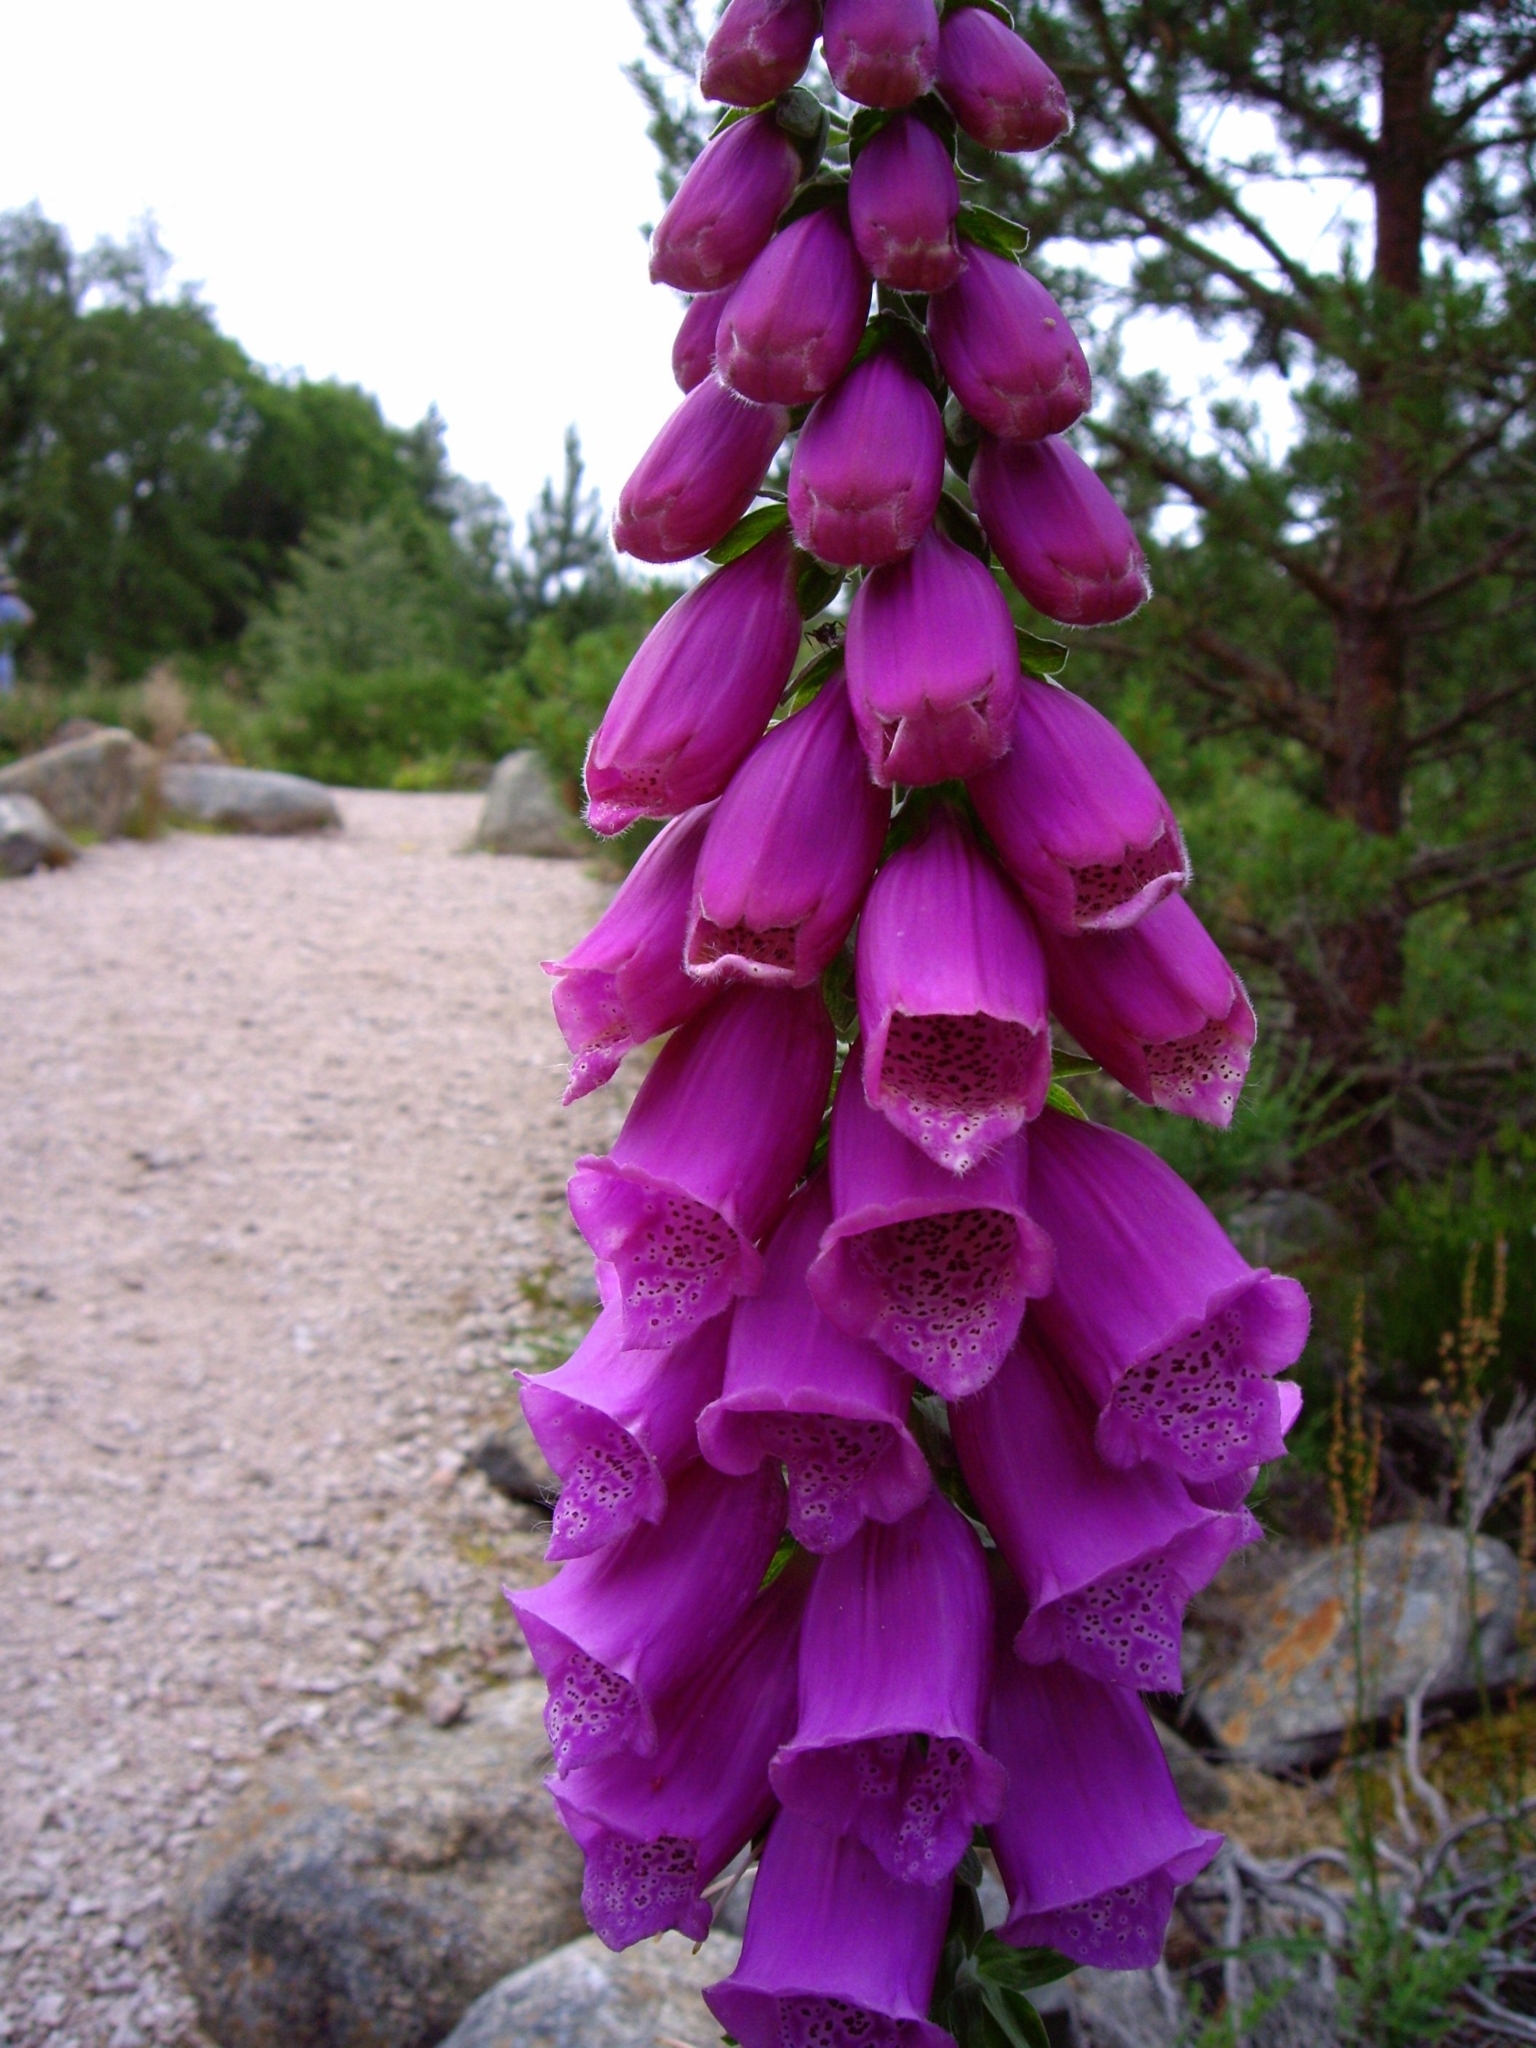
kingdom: Plantae
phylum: Tracheophyta
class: Magnoliopsida
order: Lamiales
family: Plantaginaceae
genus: Digitalis
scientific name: Digitalis purpurea
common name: Foxglove
